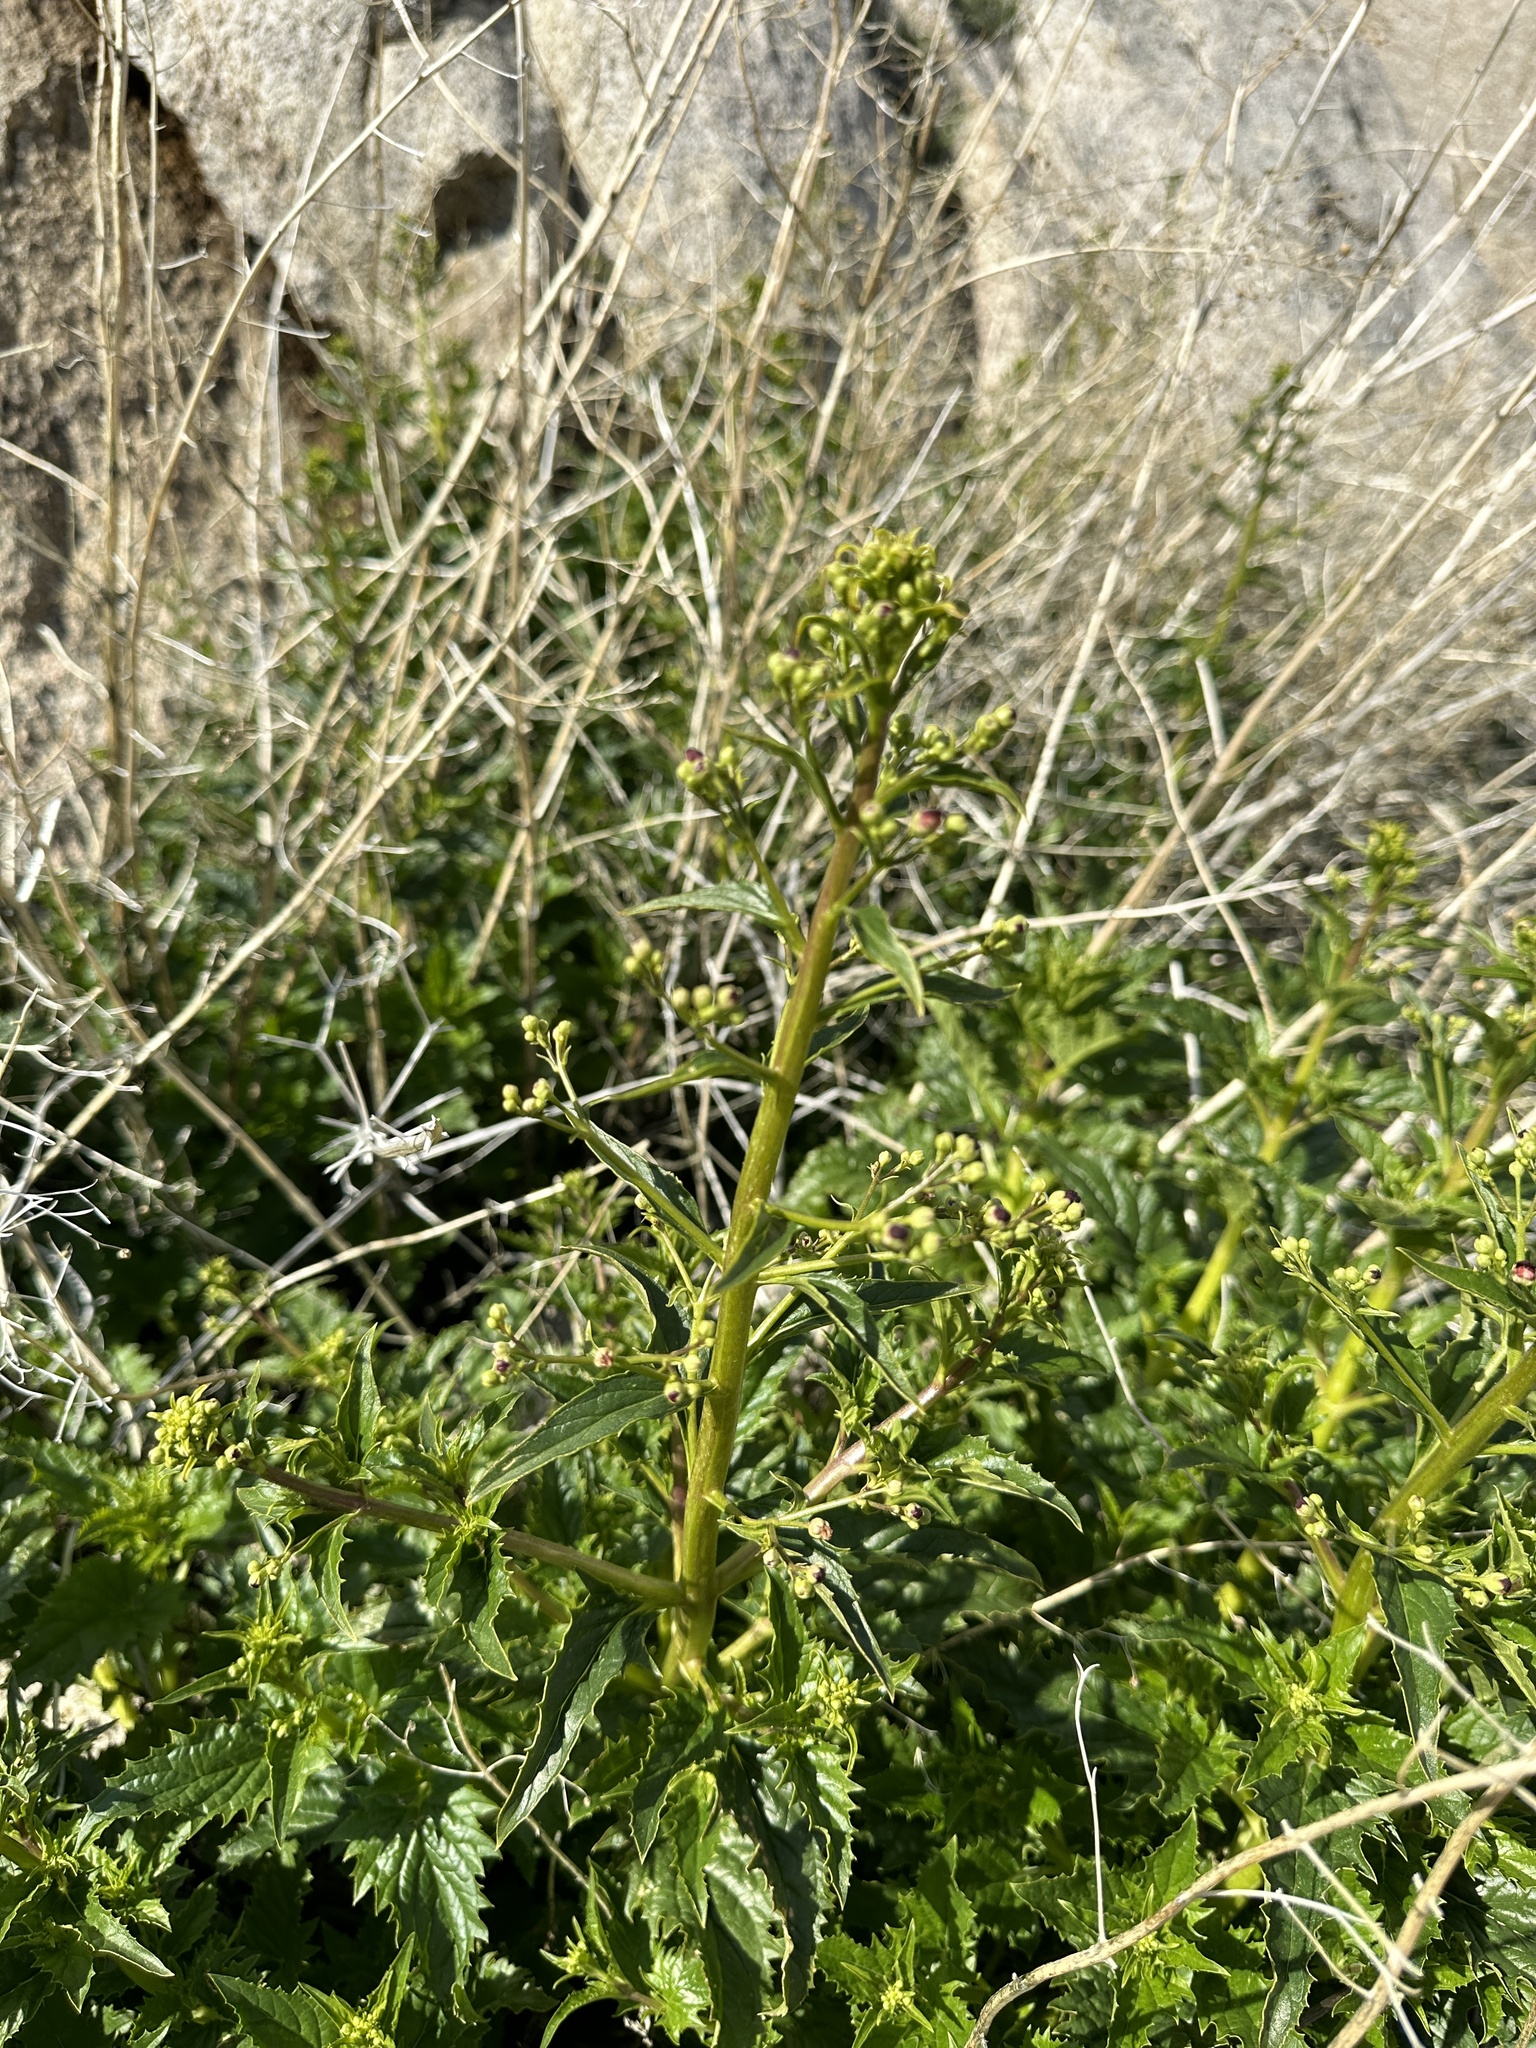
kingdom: Plantae
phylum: Tracheophyta
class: Magnoliopsida
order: Lamiales
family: Scrophulariaceae
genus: Scrophularia
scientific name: Scrophularia californica
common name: California figwort
